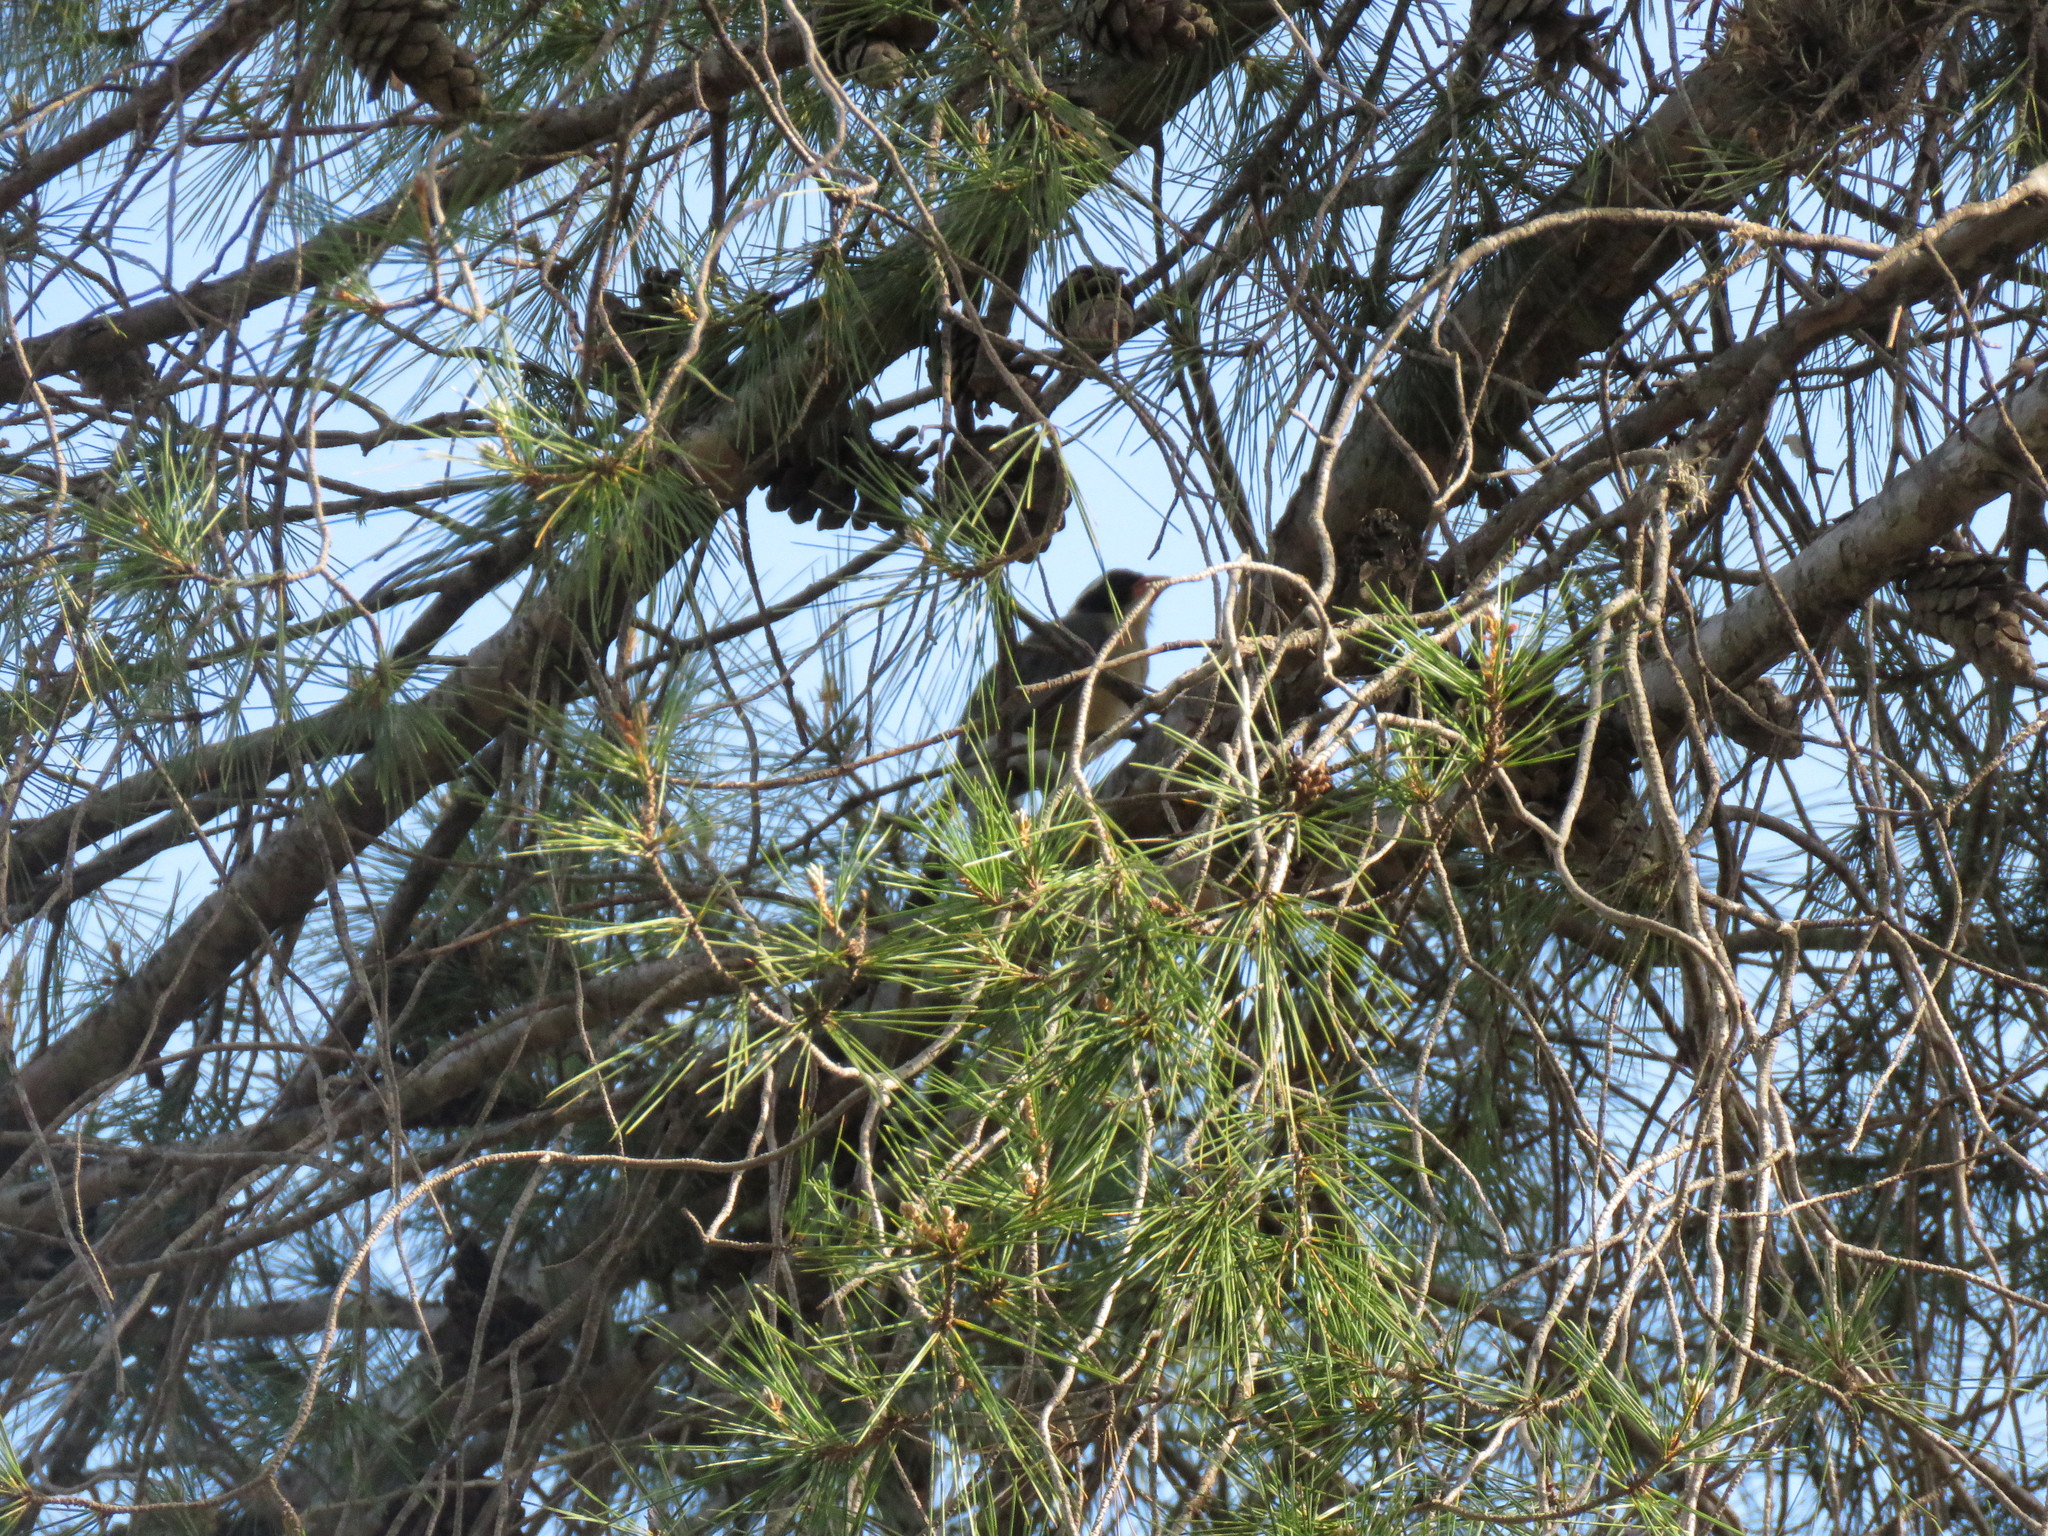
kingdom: Animalia
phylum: Chordata
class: Aves
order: Passeriformes
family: Thraupidae
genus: Saltator
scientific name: Saltator aurantiirostris
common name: Golden-billed saltator
